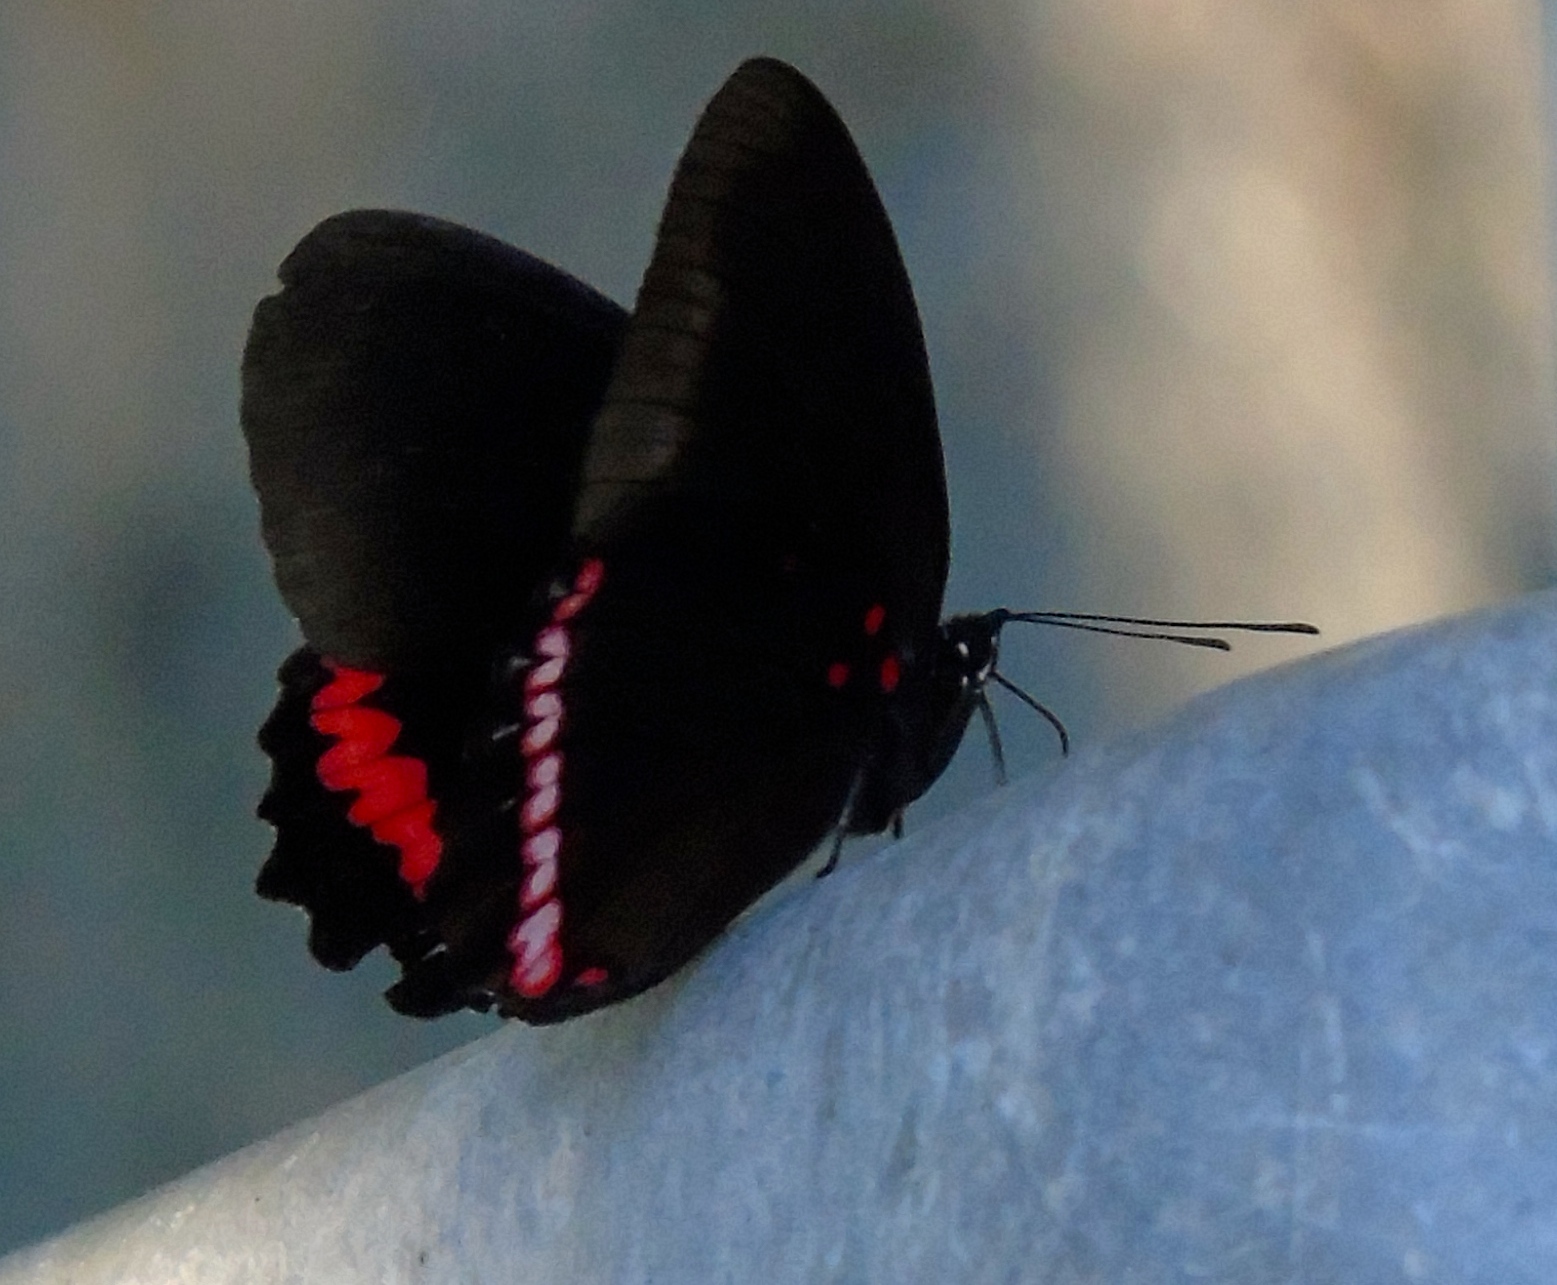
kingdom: Animalia
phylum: Arthropoda
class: Insecta
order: Lepidoptera
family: Nymphalidae
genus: Biblis
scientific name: Biblis aganisa
